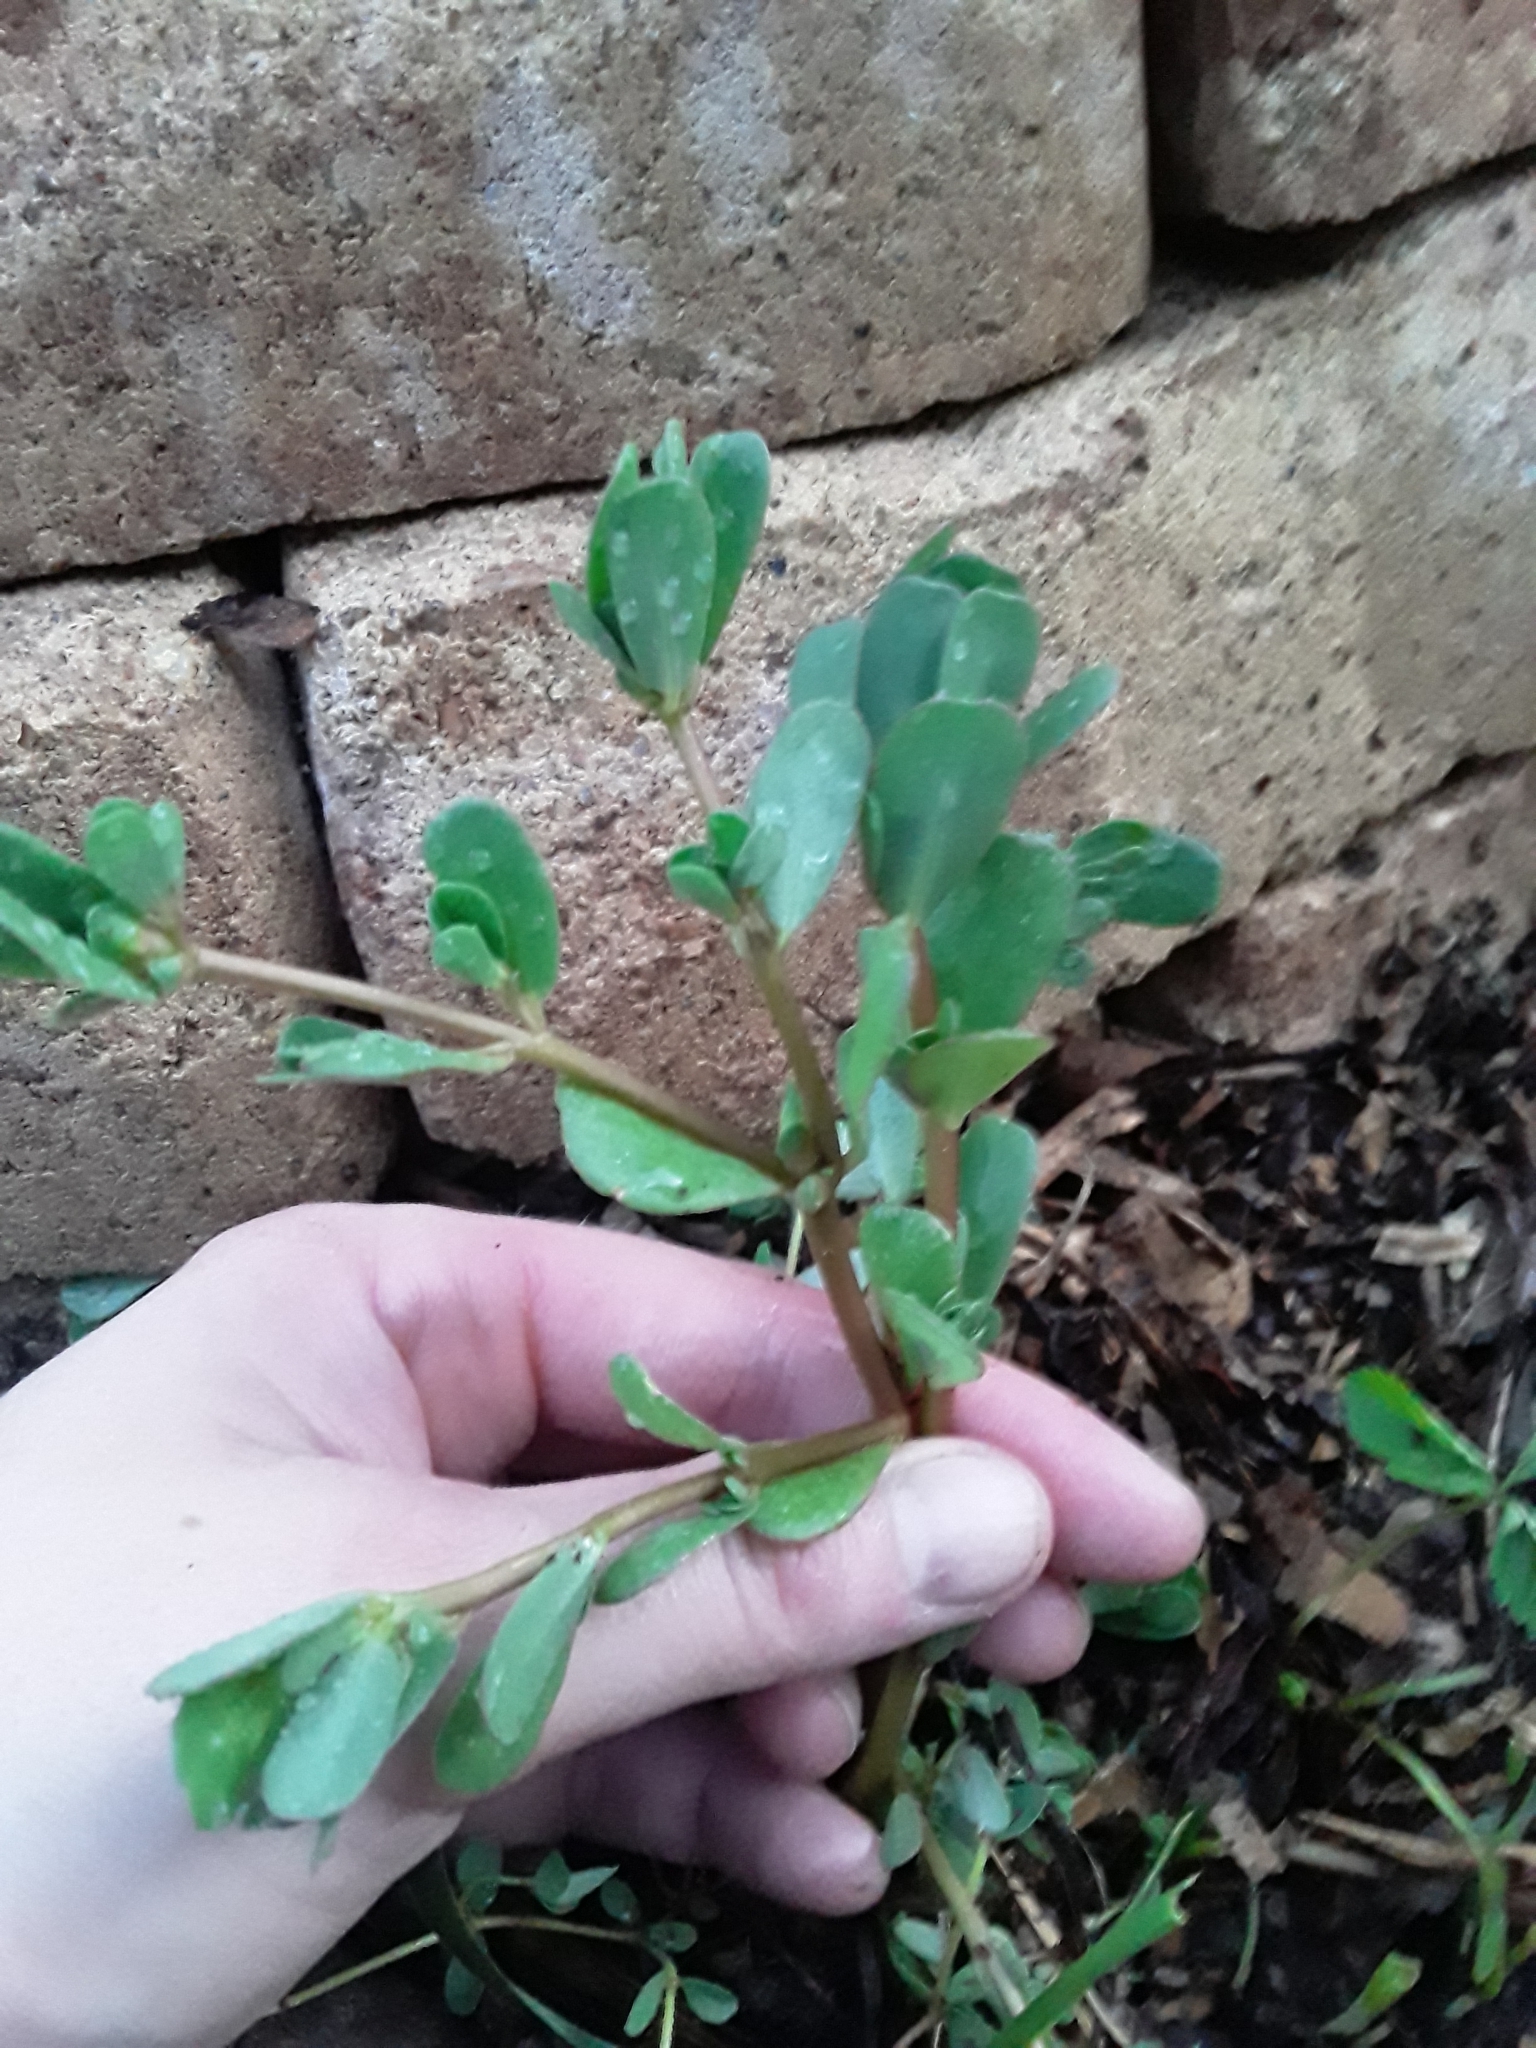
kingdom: Plantae
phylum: Tracheophyta
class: Magnoliopsida
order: Caryophyllales
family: Portulacaceae
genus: Portulaca
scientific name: Portulaca oleracea
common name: Common purslane
